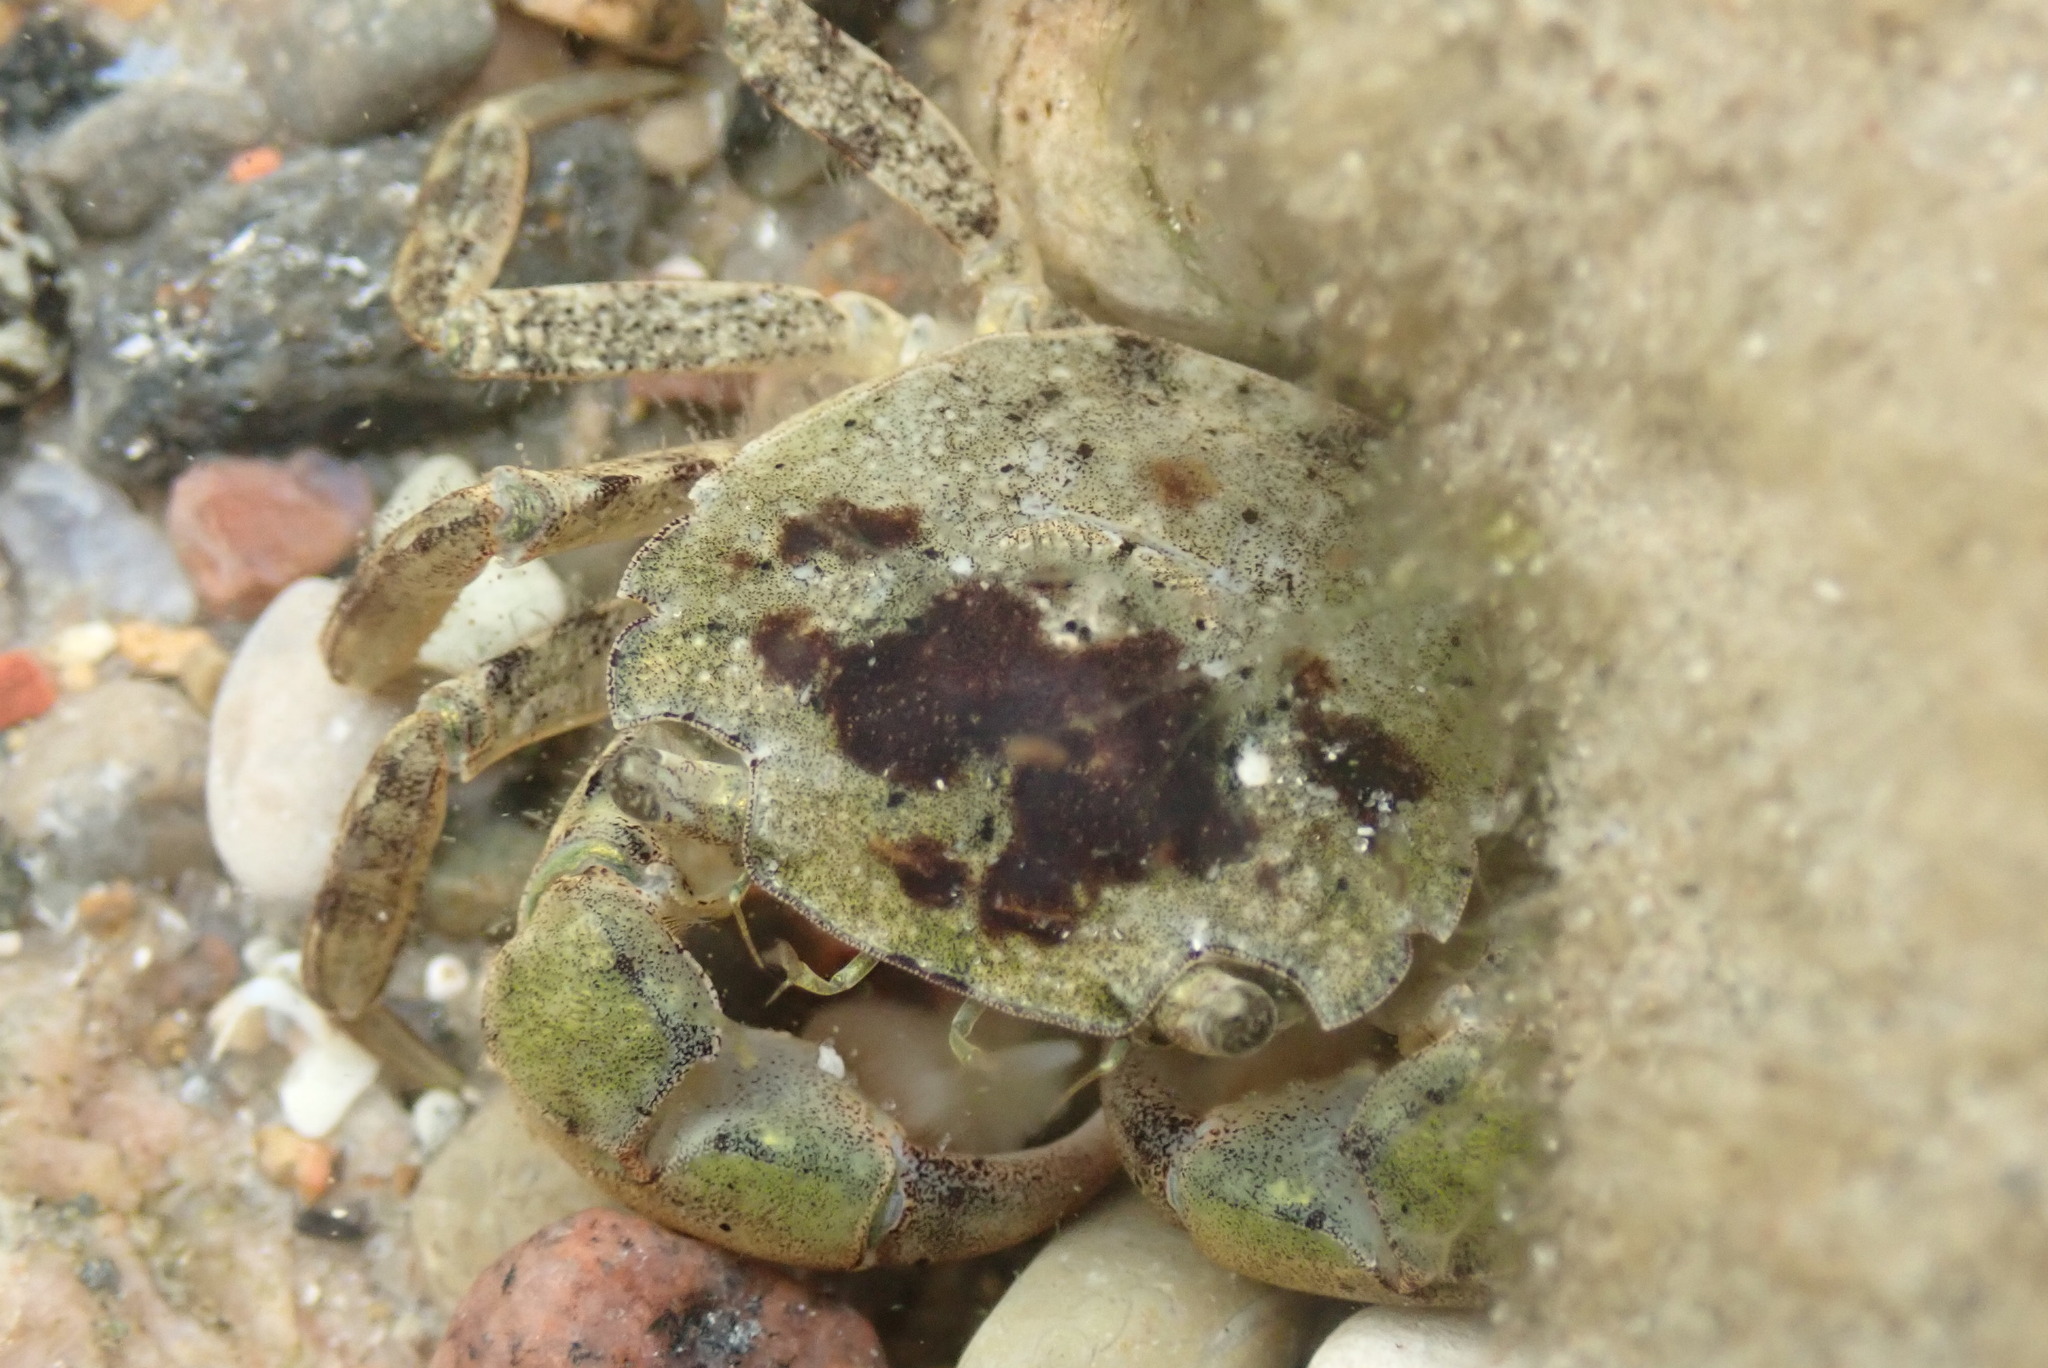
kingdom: Animalia
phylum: Arthropoda
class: Malacostraca
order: Decapoda
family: Varunidae
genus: Hemigrapsus
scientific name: Hemigrapsus takanoi
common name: Asian brush crab
